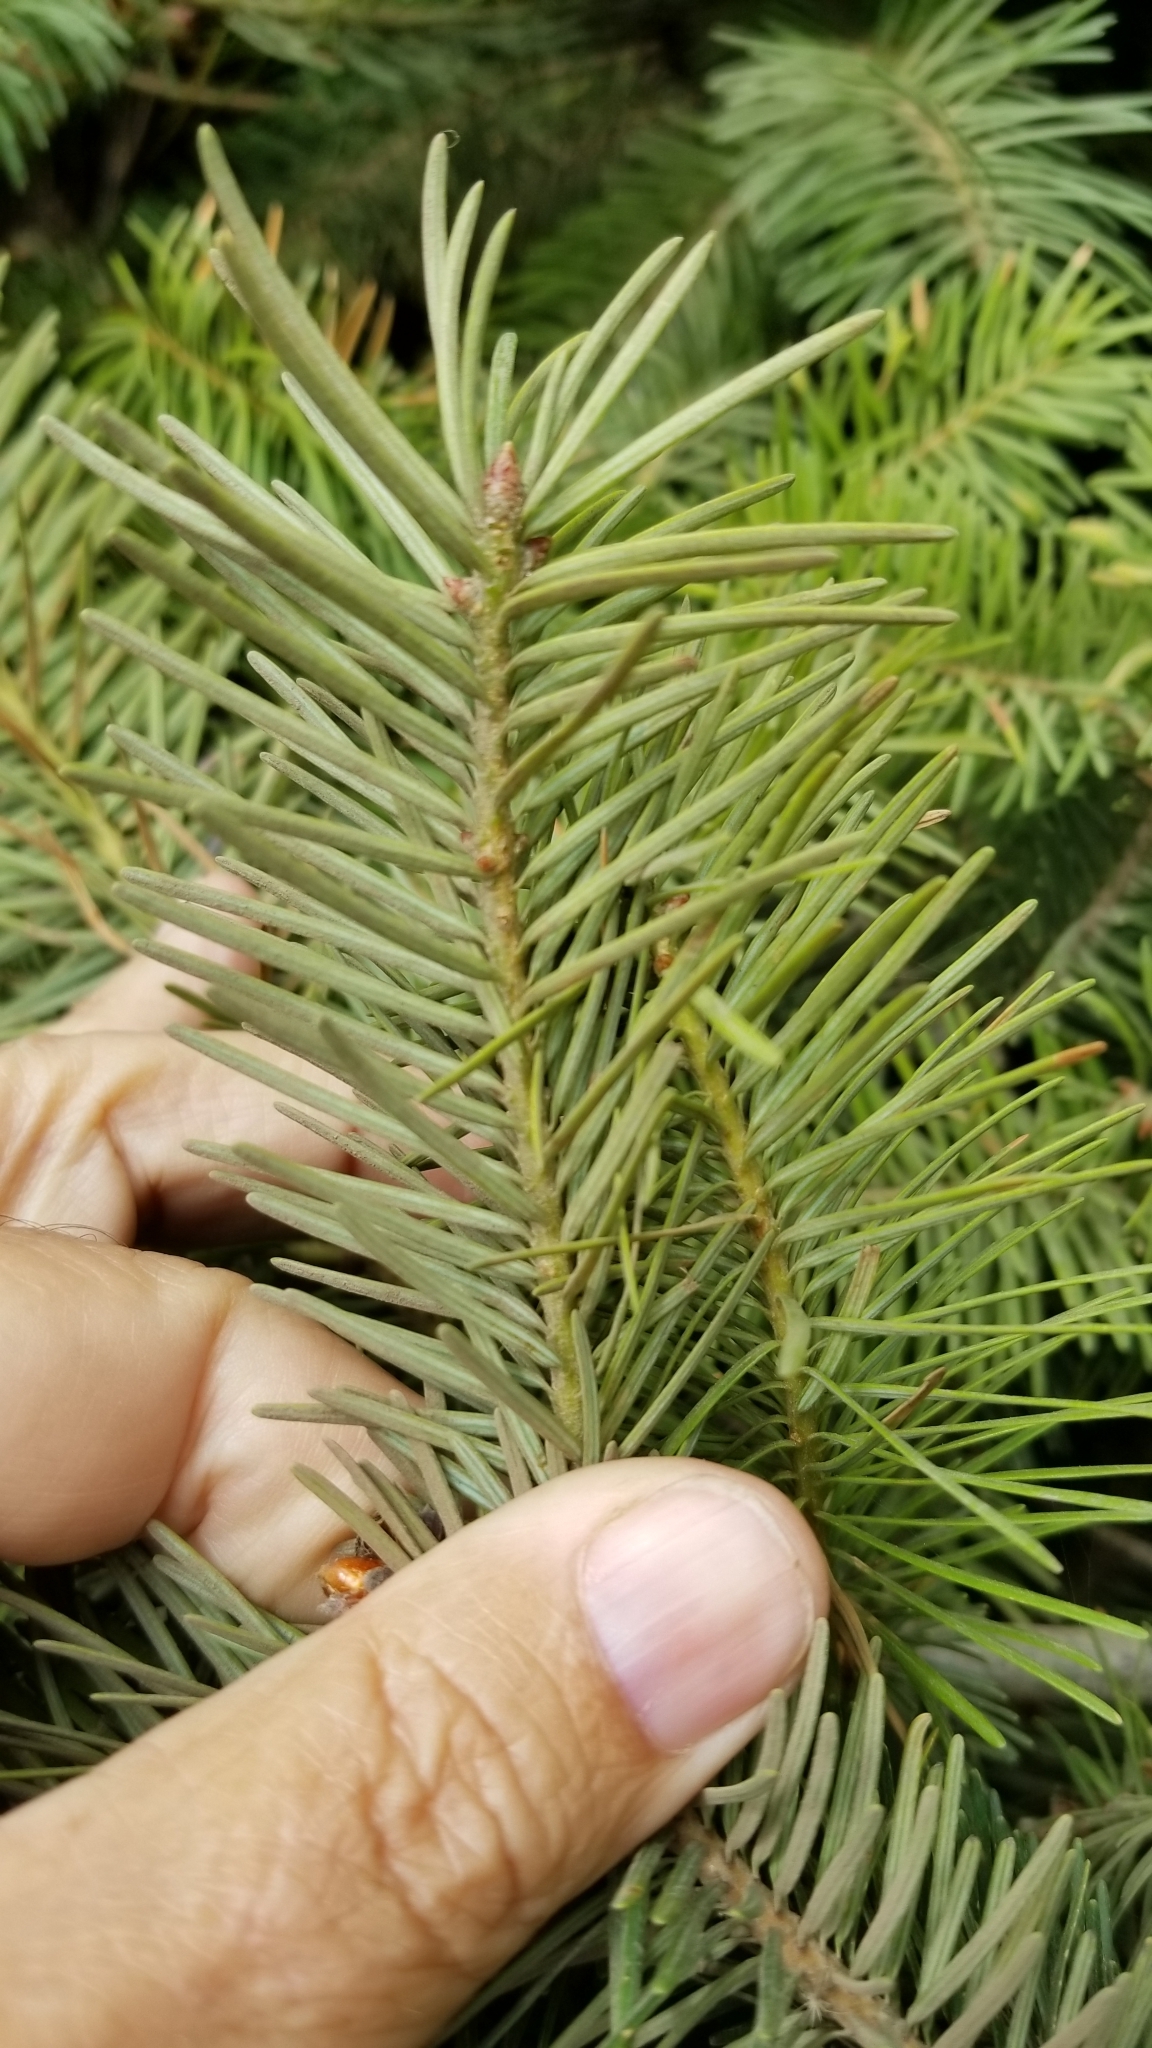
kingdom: Plantae
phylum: Tracheophyta
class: Pinopsida
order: Pinales
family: Pinaceae
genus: Pseudotsuga
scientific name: Pseudotsuga menziesii
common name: Douglas fir
